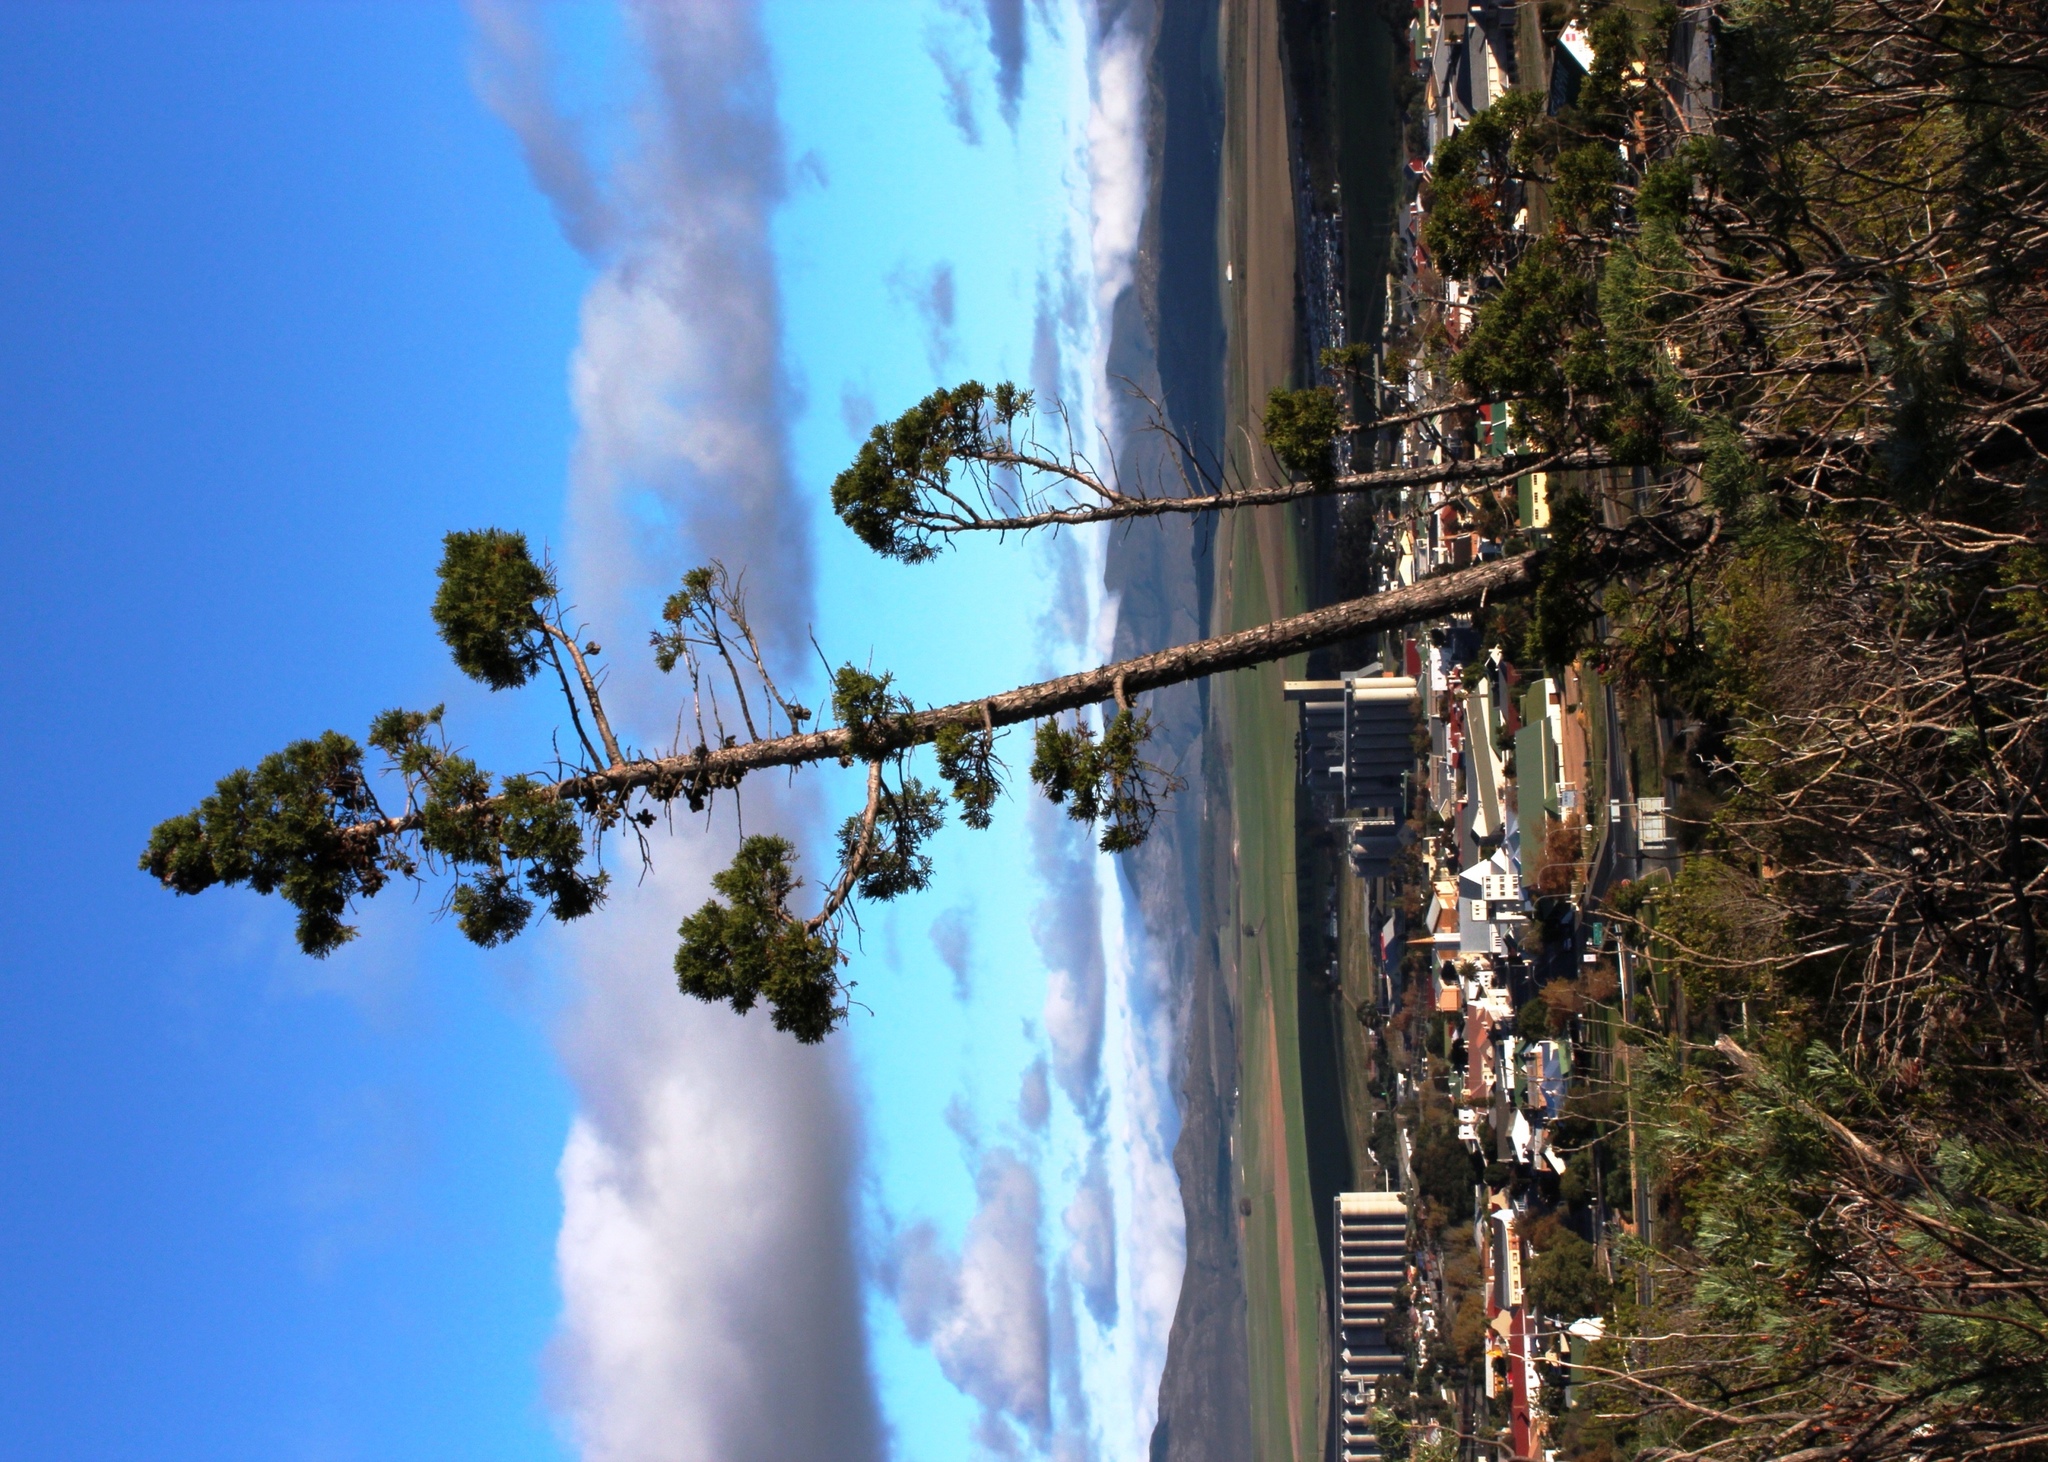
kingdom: Plantae
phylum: Tracheophyta
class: Pinopsida
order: Pinales
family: Cupressaceae
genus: Widdringtonia
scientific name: Widdringtonia nodiflora
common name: Cape cypress
